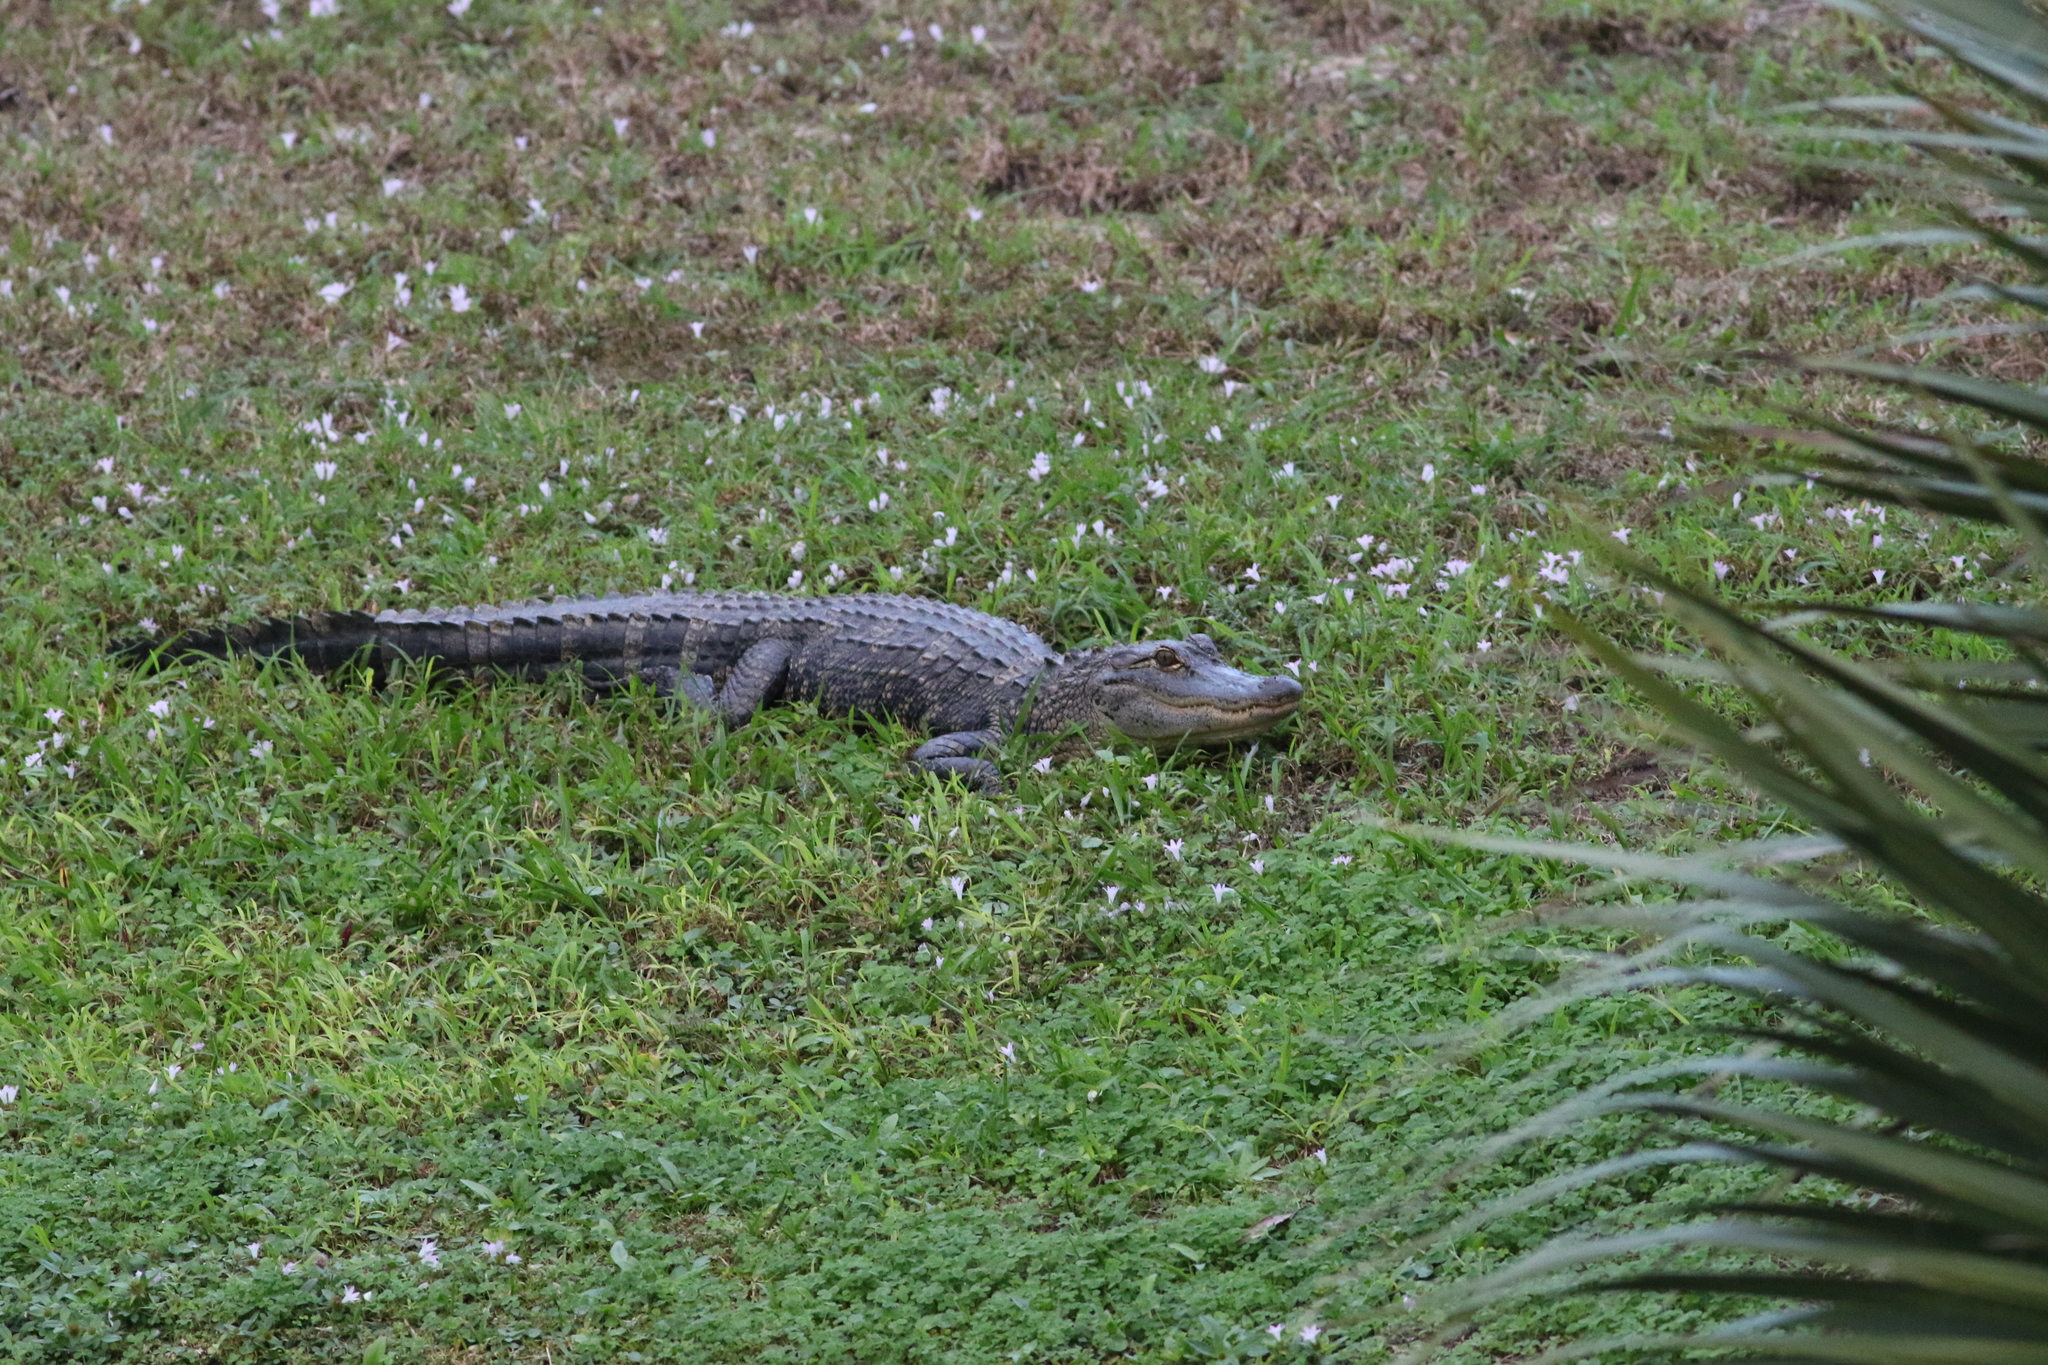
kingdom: Animalia
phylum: Chordata
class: Crocodylia
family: Alligatoridae
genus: Alligator
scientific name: Alligator mississippiensis
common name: American alligator
